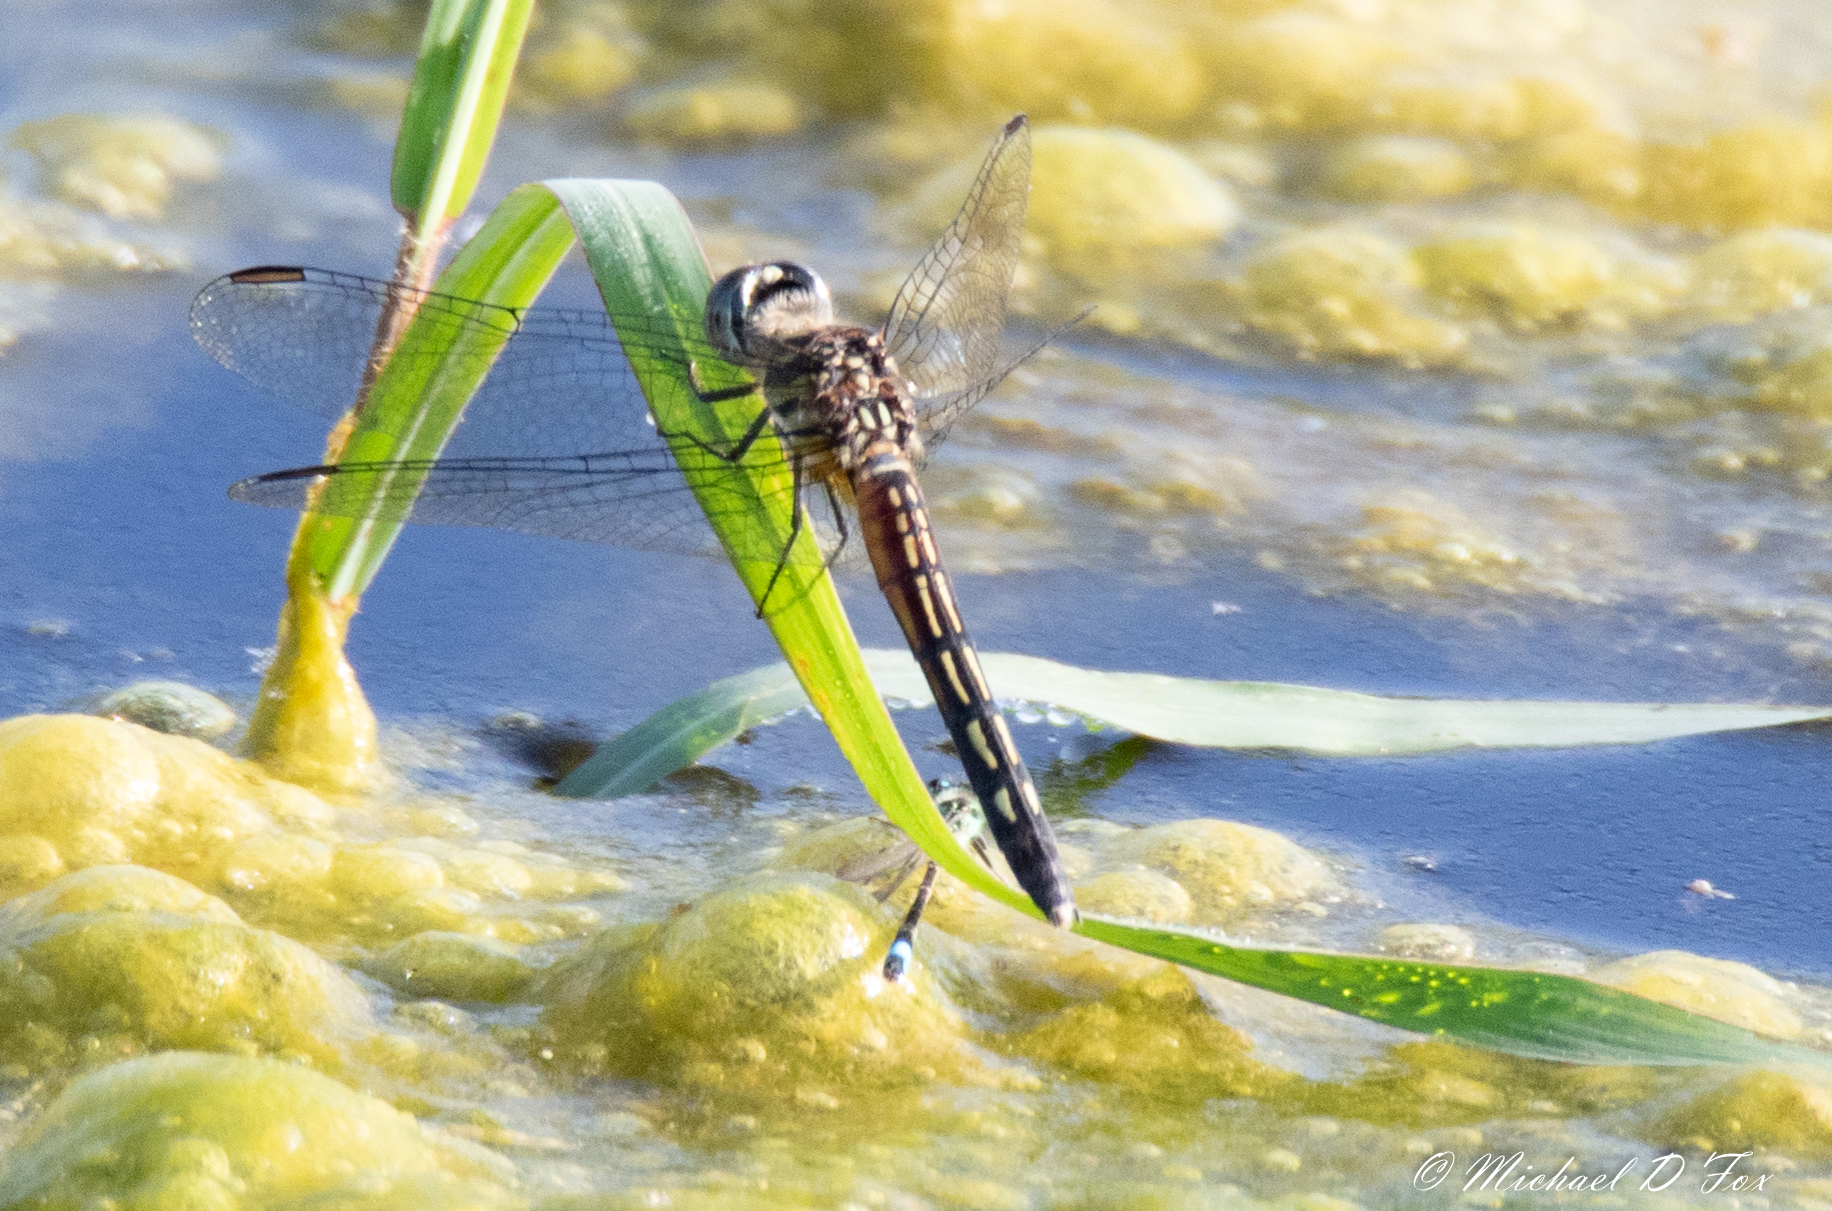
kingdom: Animalia
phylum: Arthropoda
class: Insecta
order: Odonata
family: Libellulidae
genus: Pachydiplax
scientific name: Pachydiplax longipennis
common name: Blue dasher
